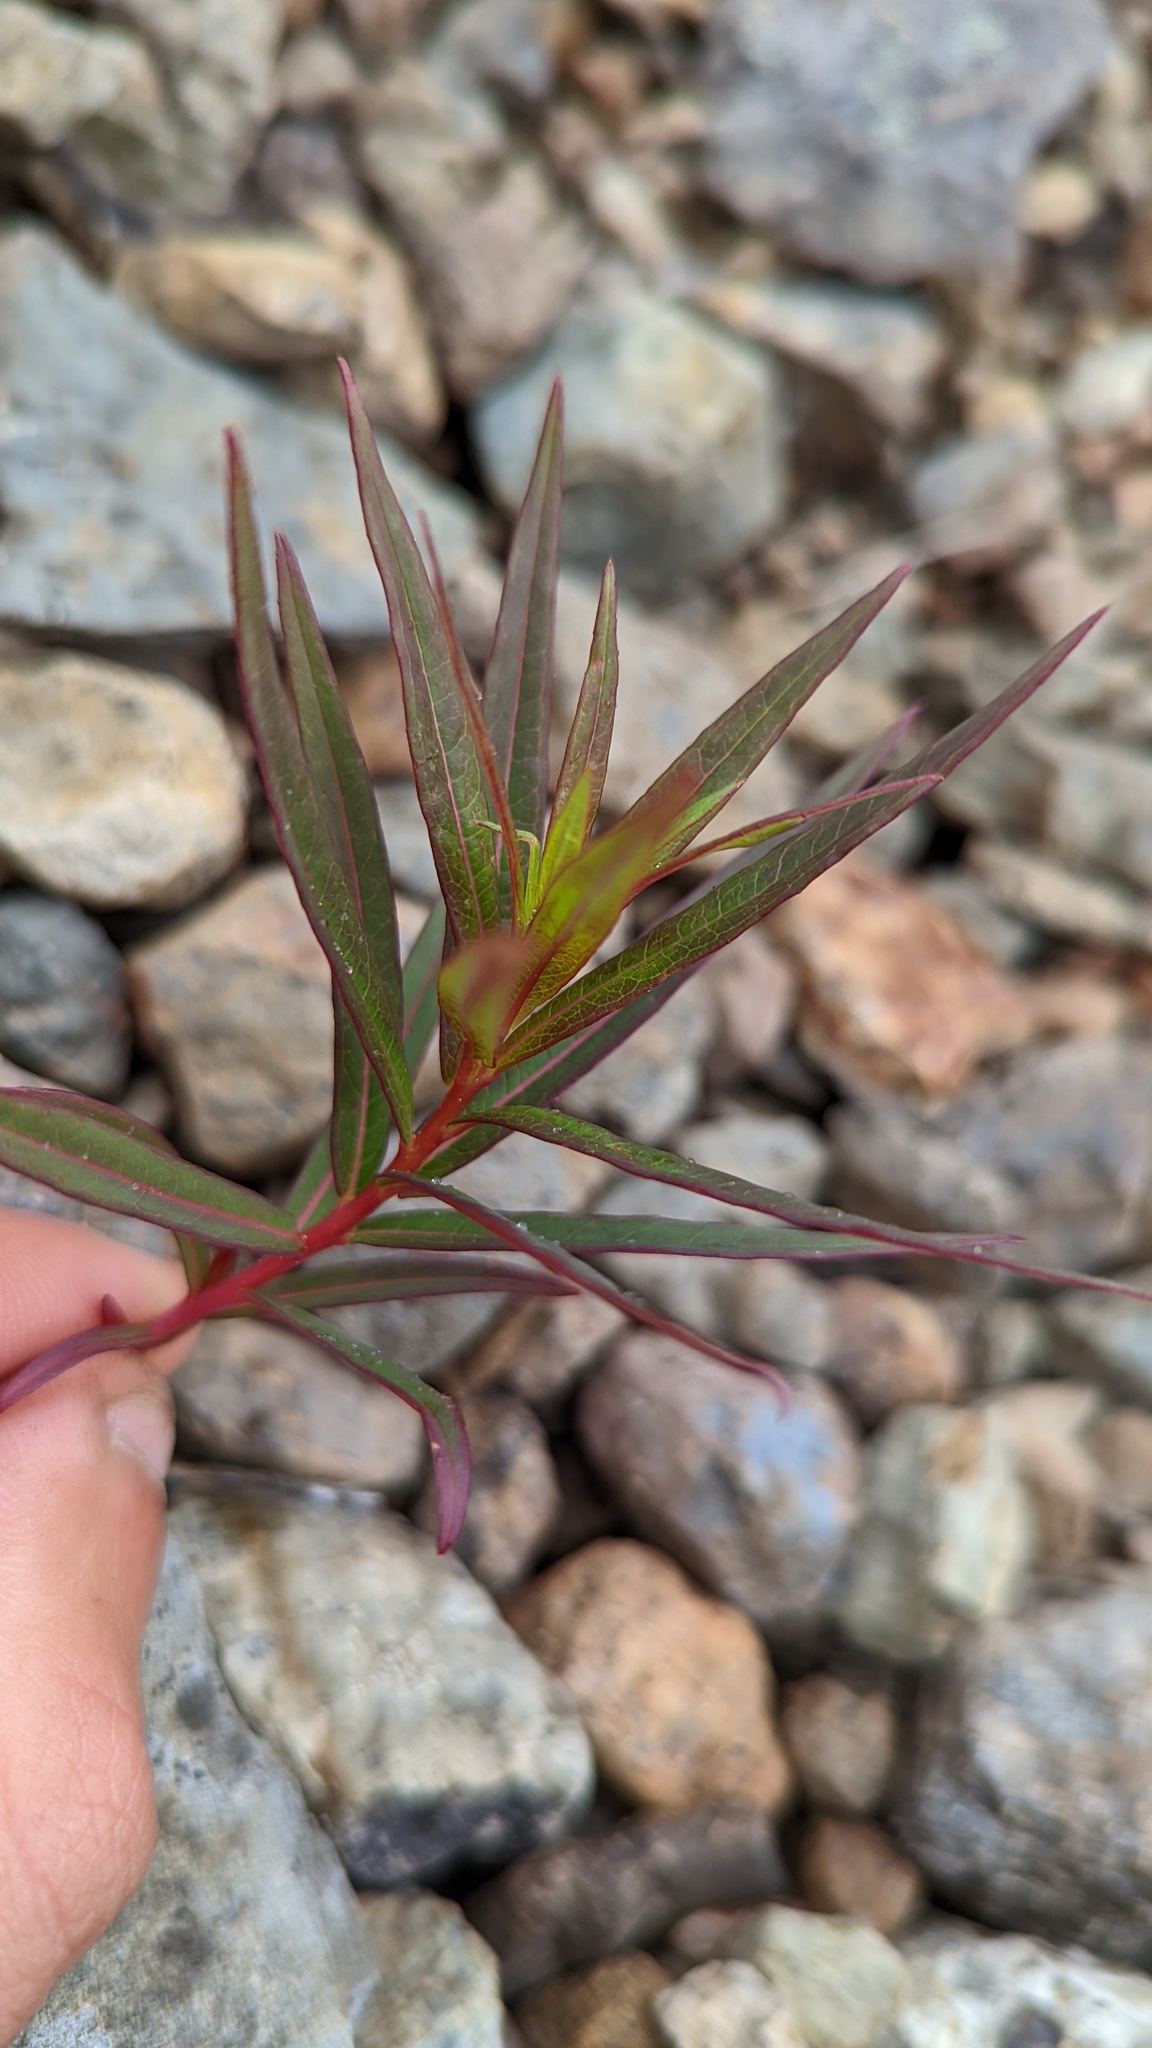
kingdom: Plantae
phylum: Tracheophyta
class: Magnoliopsida
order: Myrtales
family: Onagraceae
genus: Chamaenerion
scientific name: Chamaenerion angustifolium
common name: Fireweed
